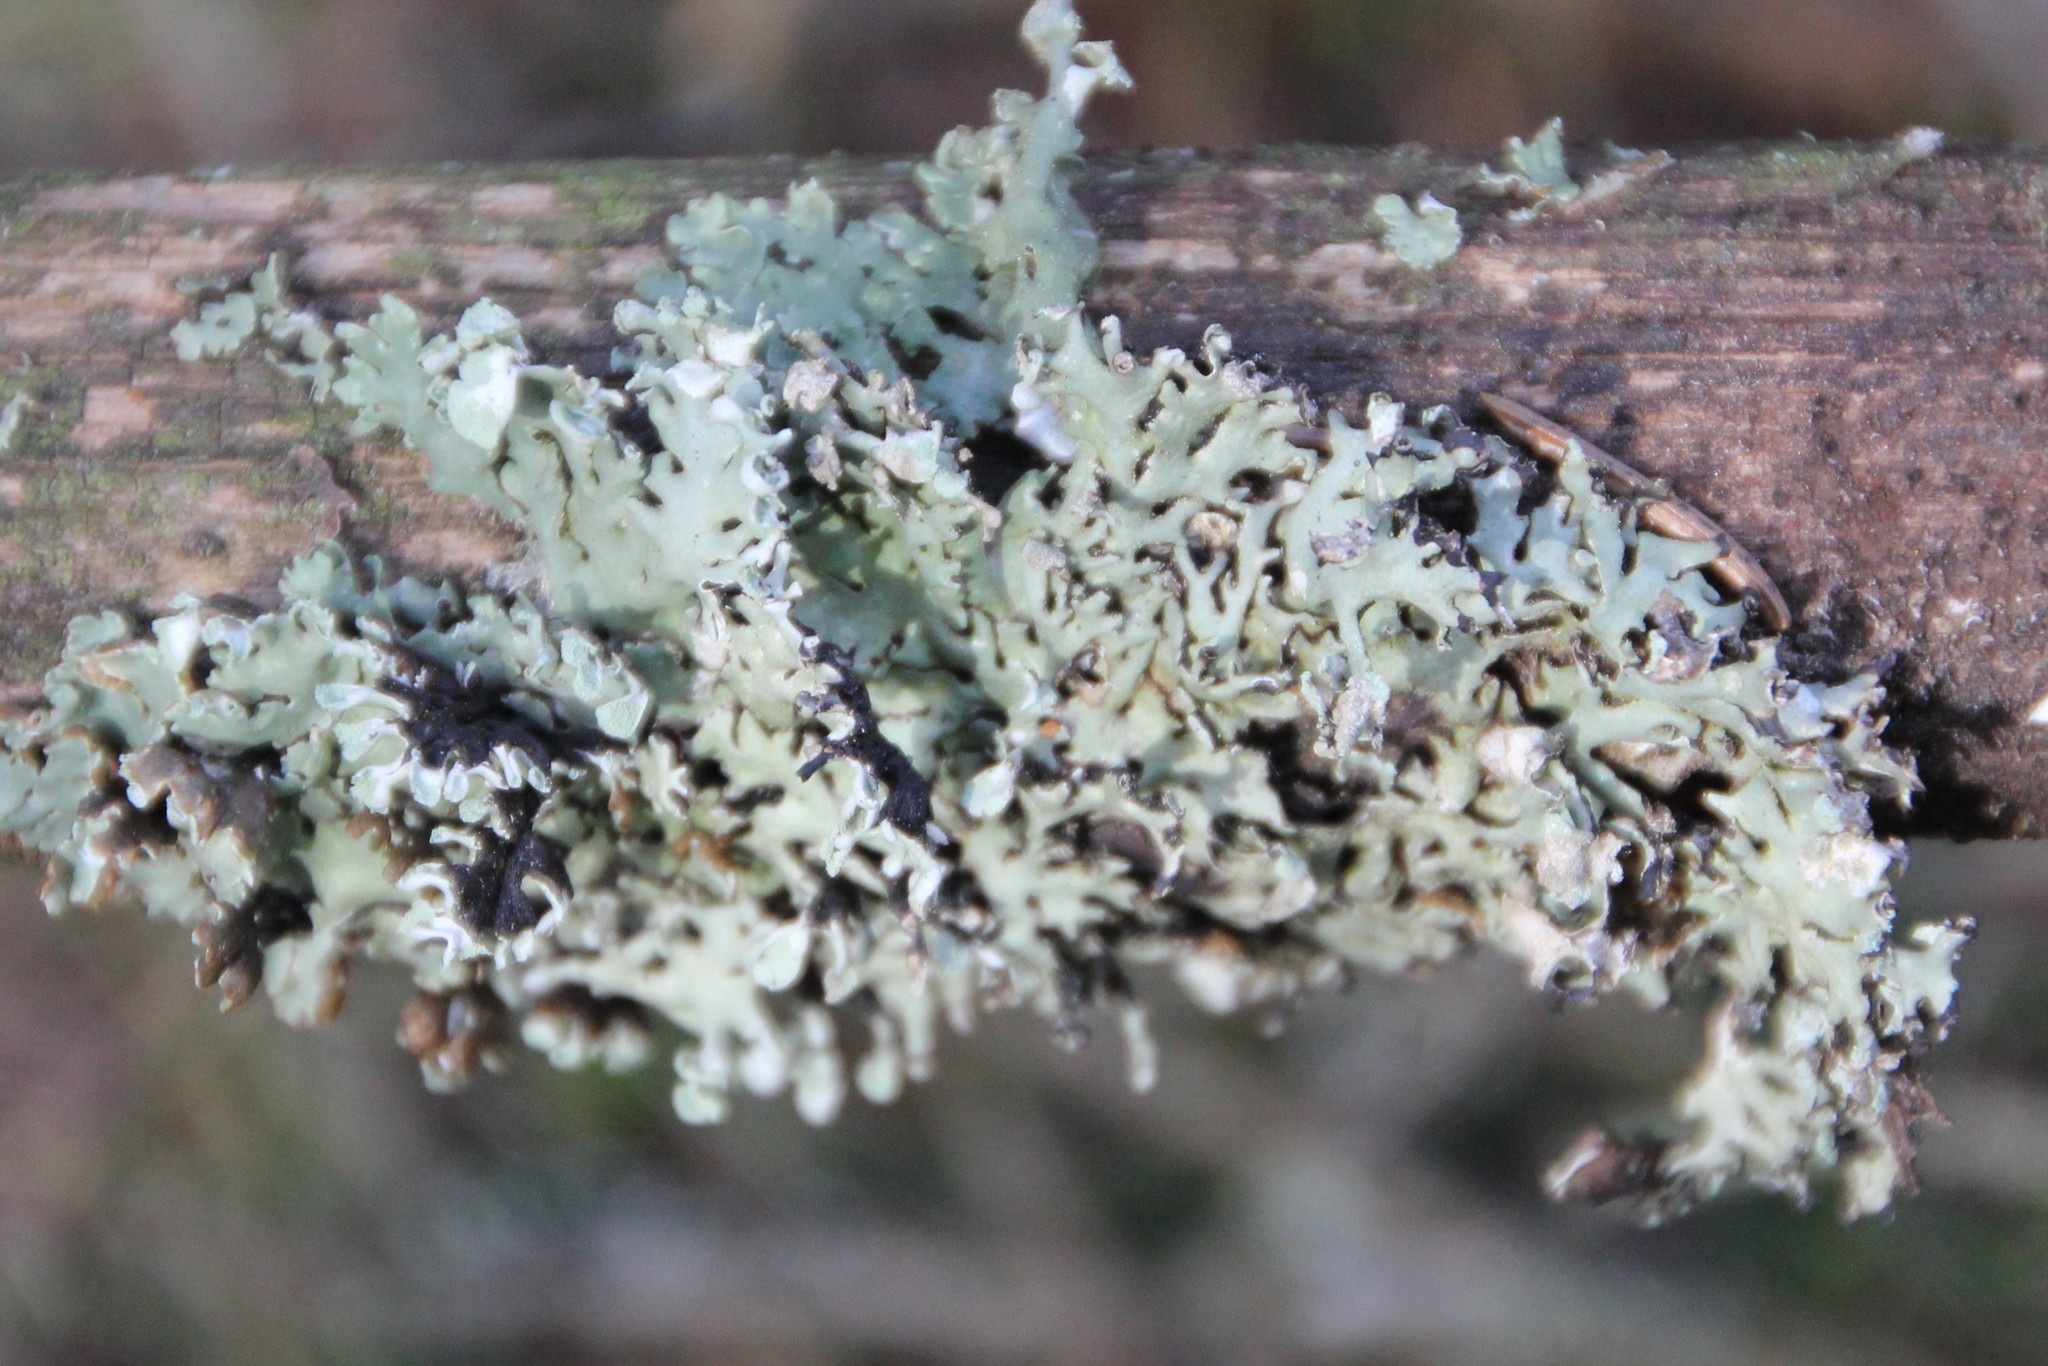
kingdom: Fungi
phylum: Ascomycota
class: Lecanoromycetes
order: Lecanorales
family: Parmeliaceae
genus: Hypogymnia
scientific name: Hypogymnia physodes
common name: Dark crottle
